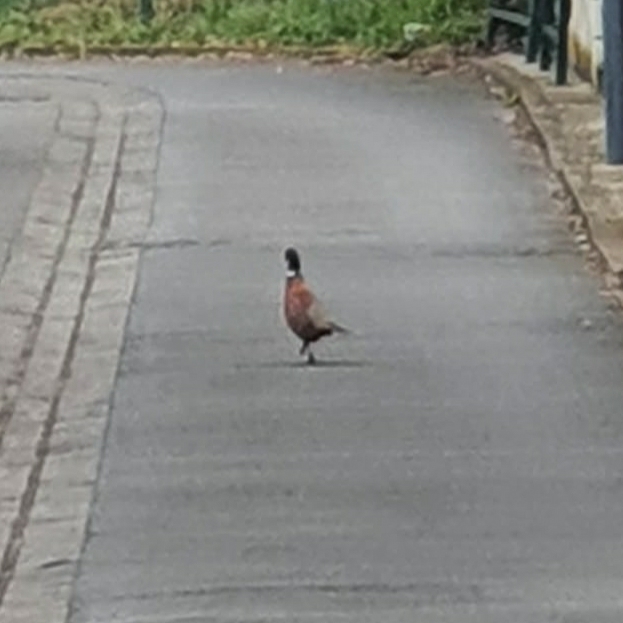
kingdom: Animalia
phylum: Chordata
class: Aves
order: Galliformes
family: Phasianidae
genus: Phasianus
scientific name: Phasianus colchicus
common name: Common pheasant
